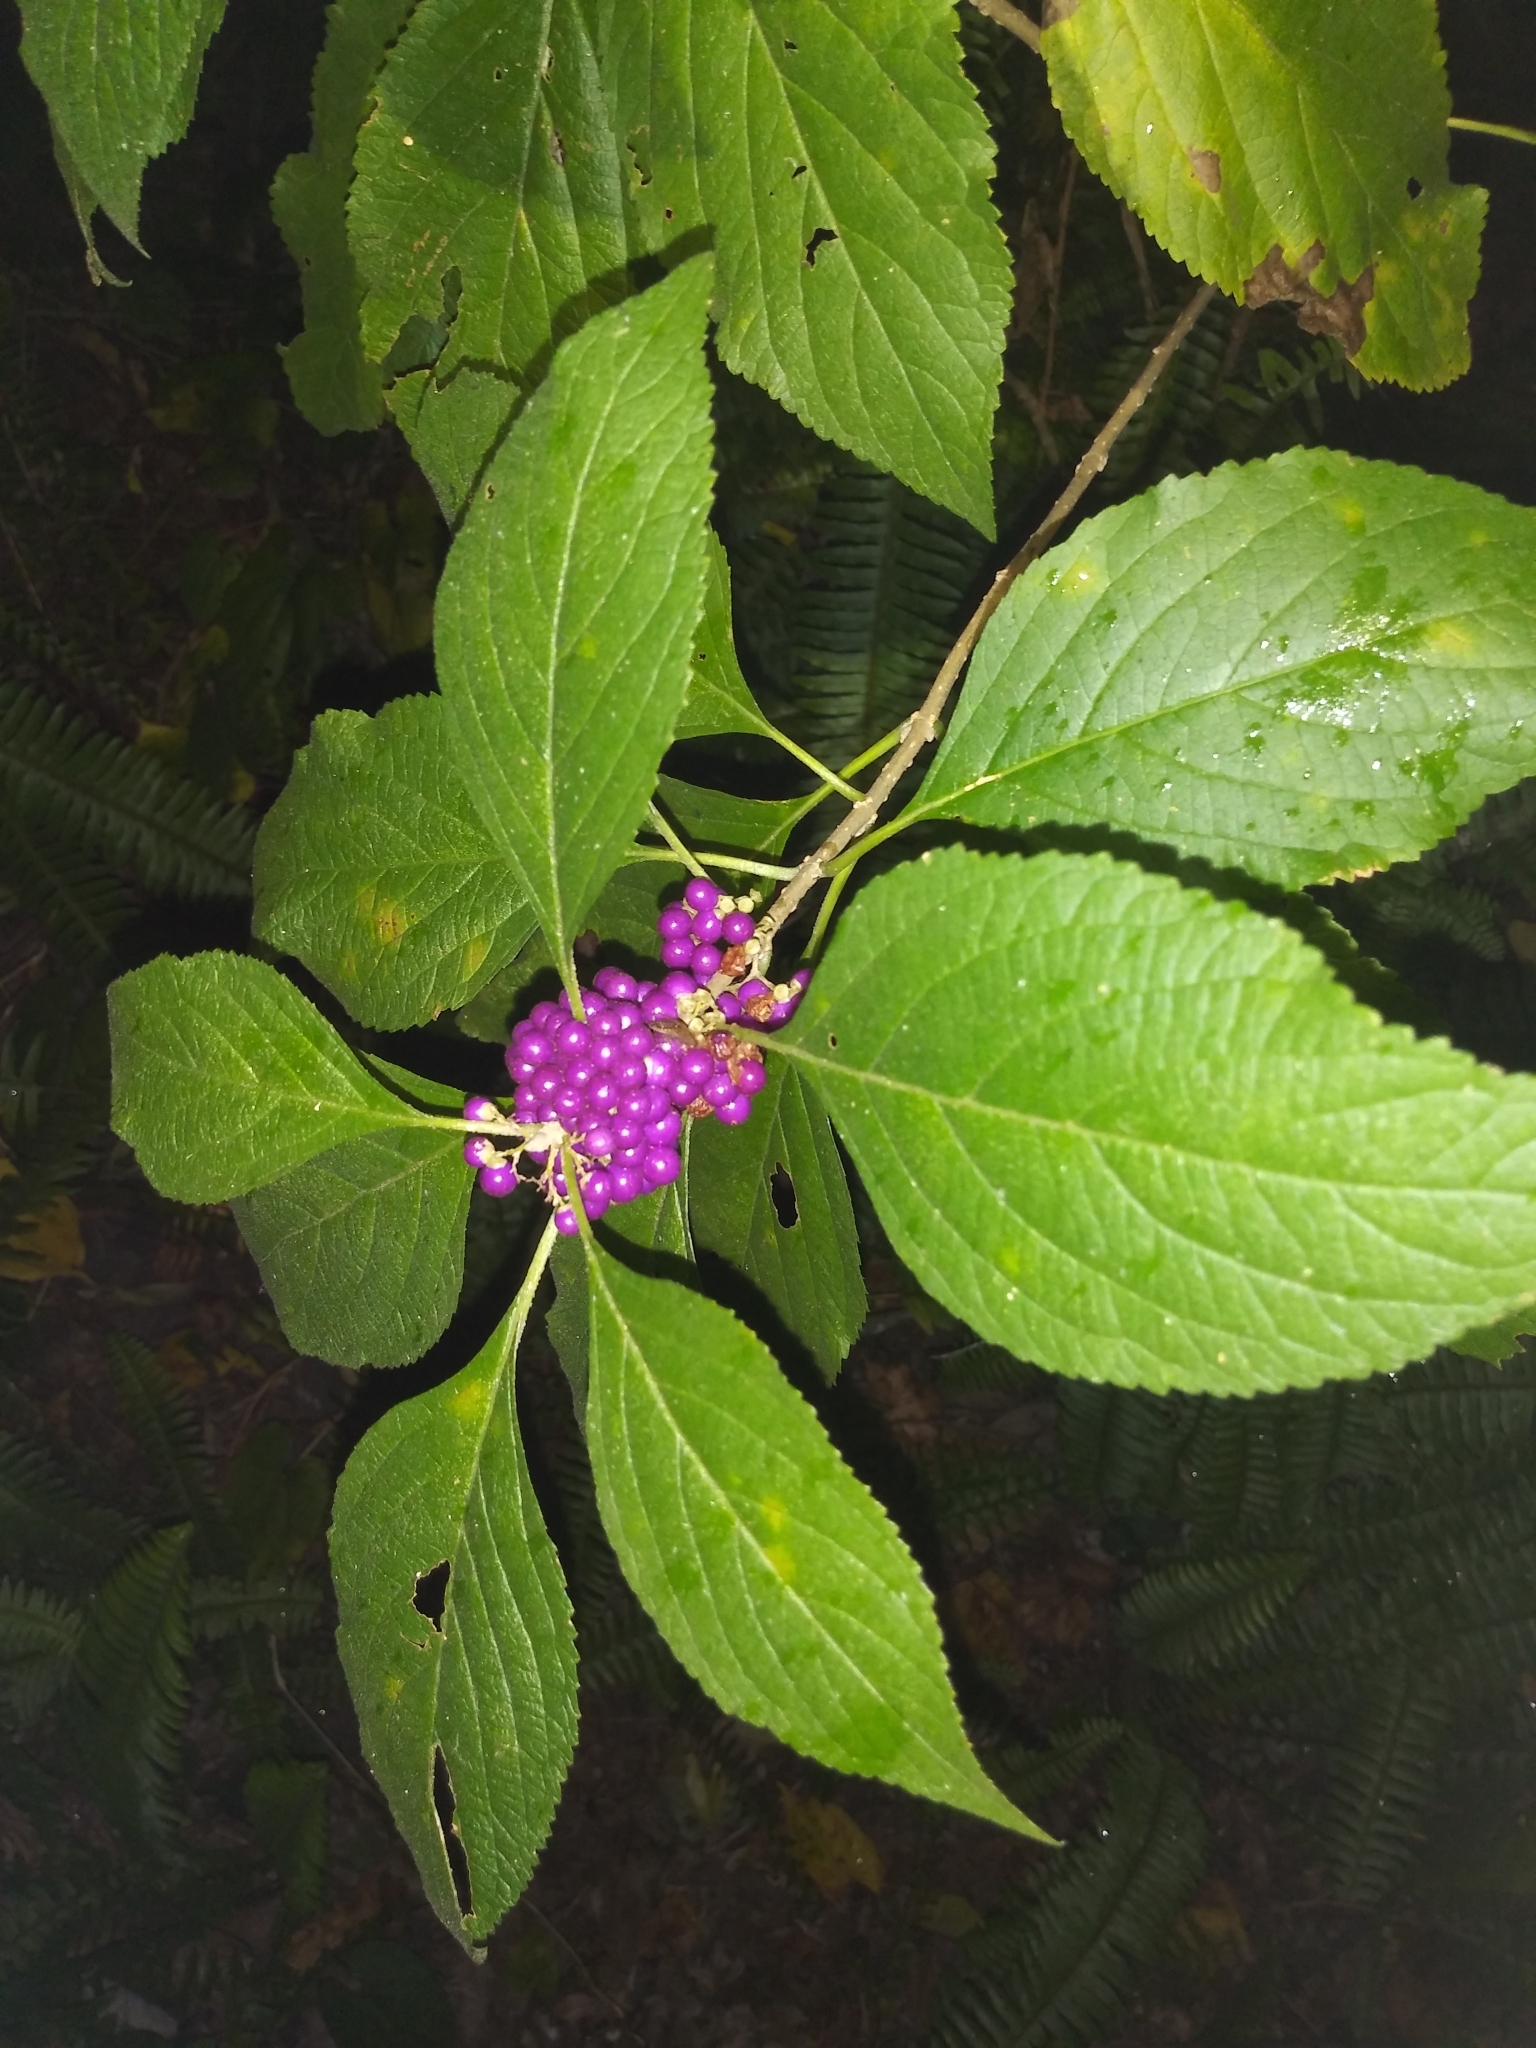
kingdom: Plantae
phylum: Tracheophyta
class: Magnoliopsida
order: Lamiales
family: Lamiaceae
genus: Callicarpa
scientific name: Callicarpa americana
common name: American beautyberry
